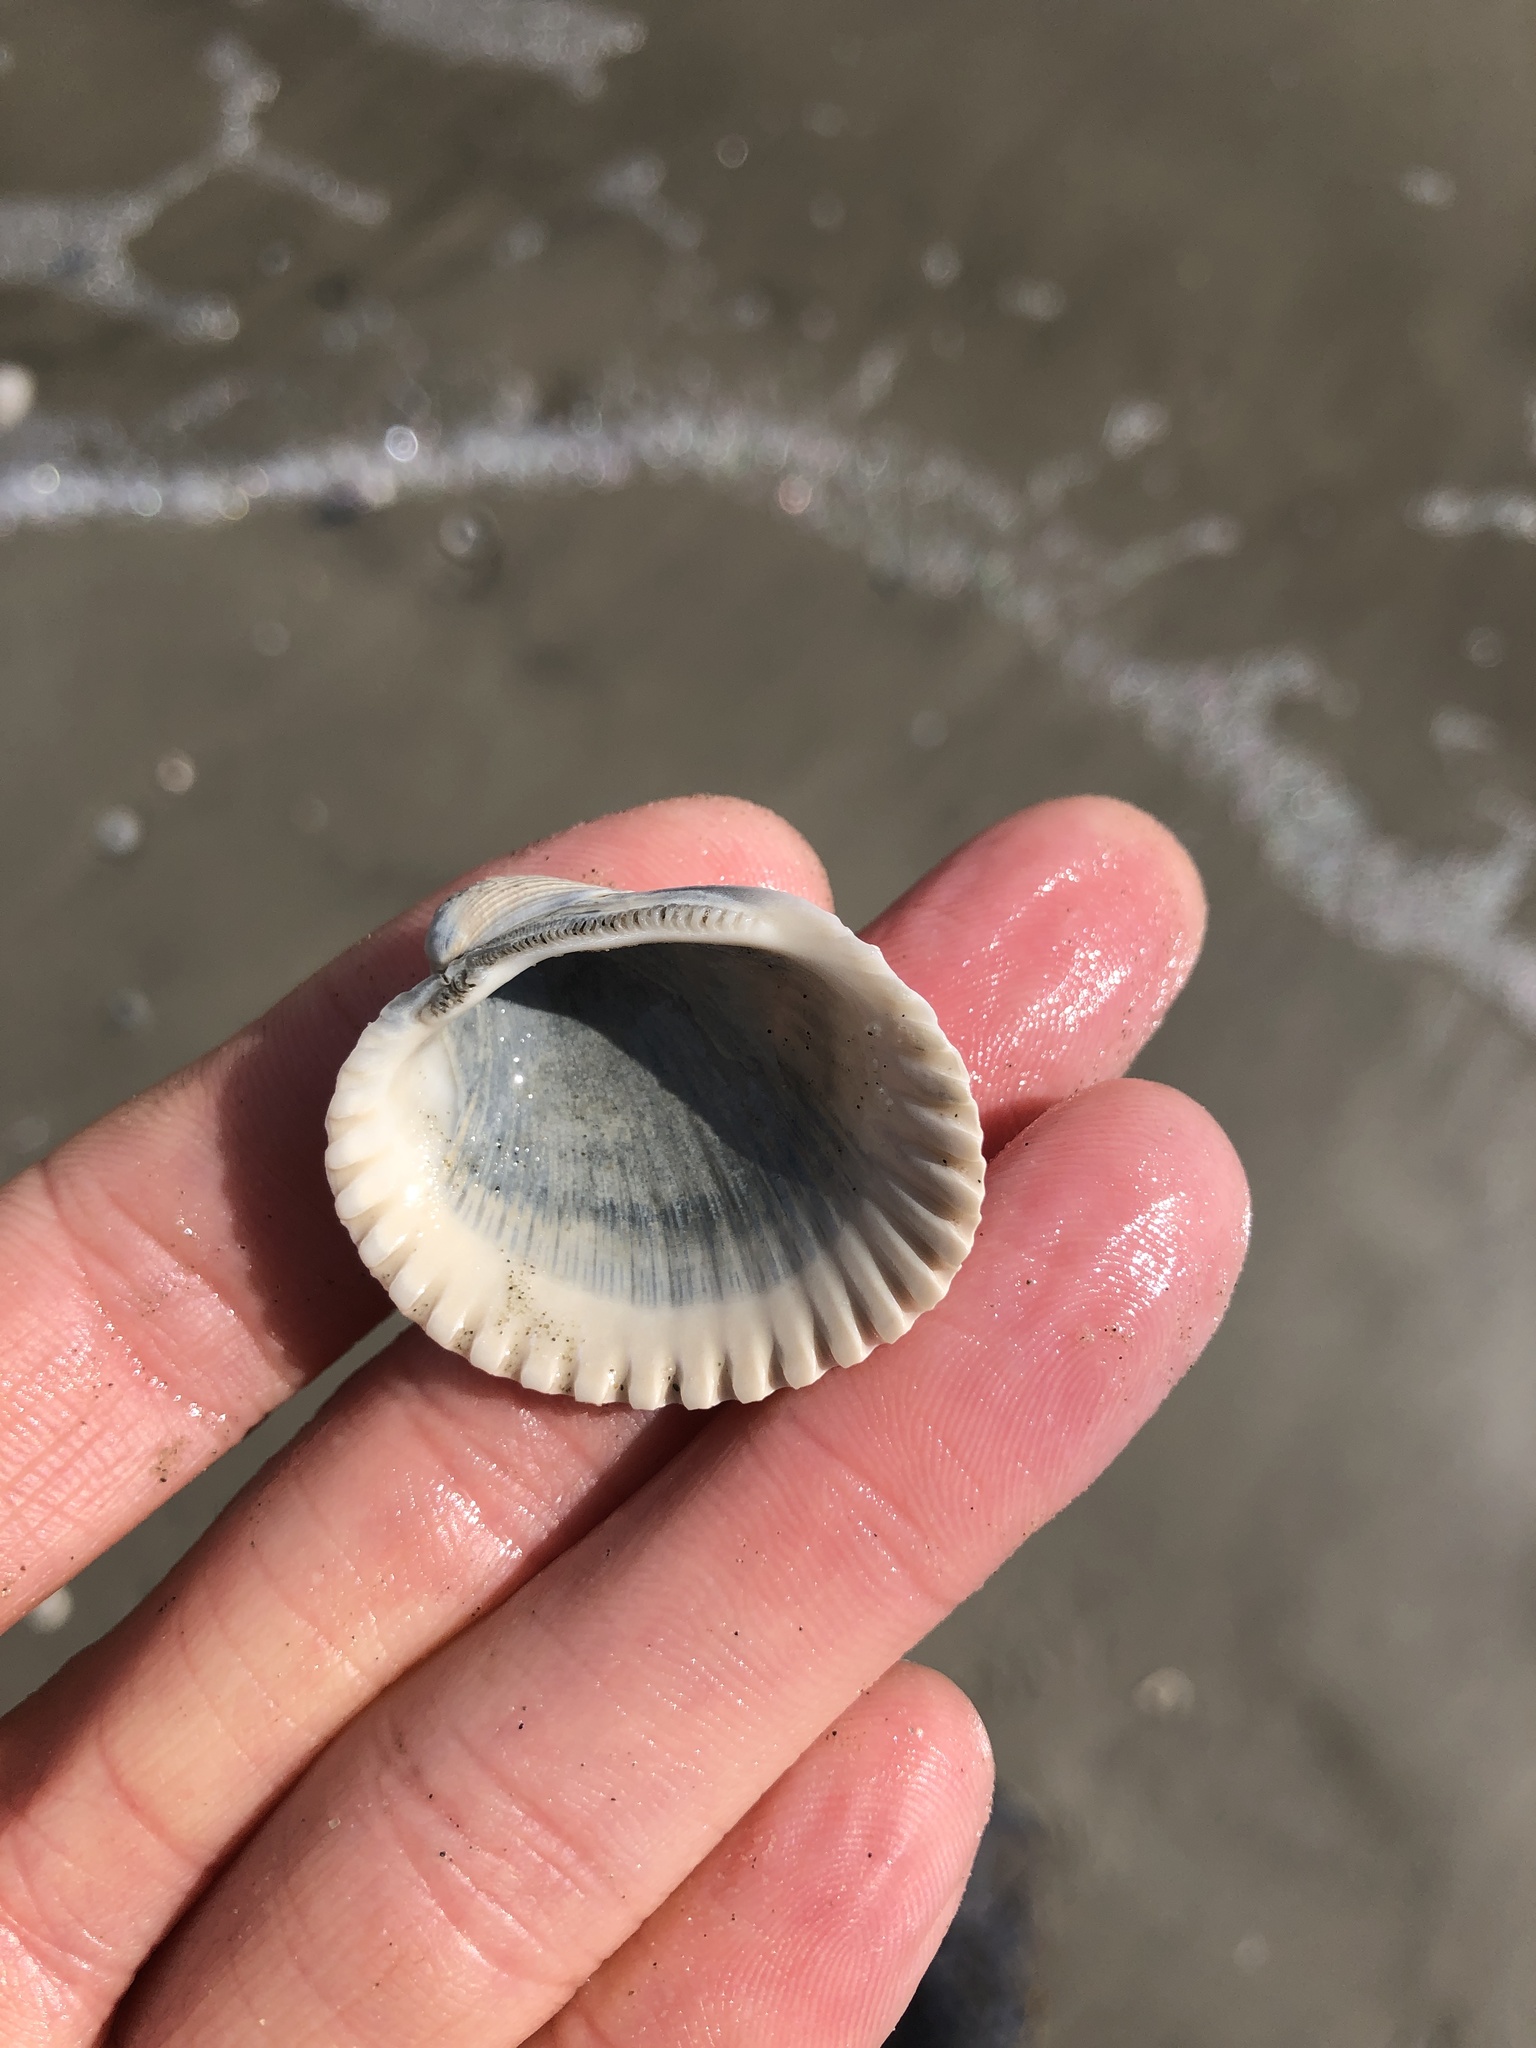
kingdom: Animalia
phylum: Mollusca
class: Bivalvia
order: Arcida
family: Arcidae
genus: Lunarca
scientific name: Lunarca ovalis
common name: Blood ark
